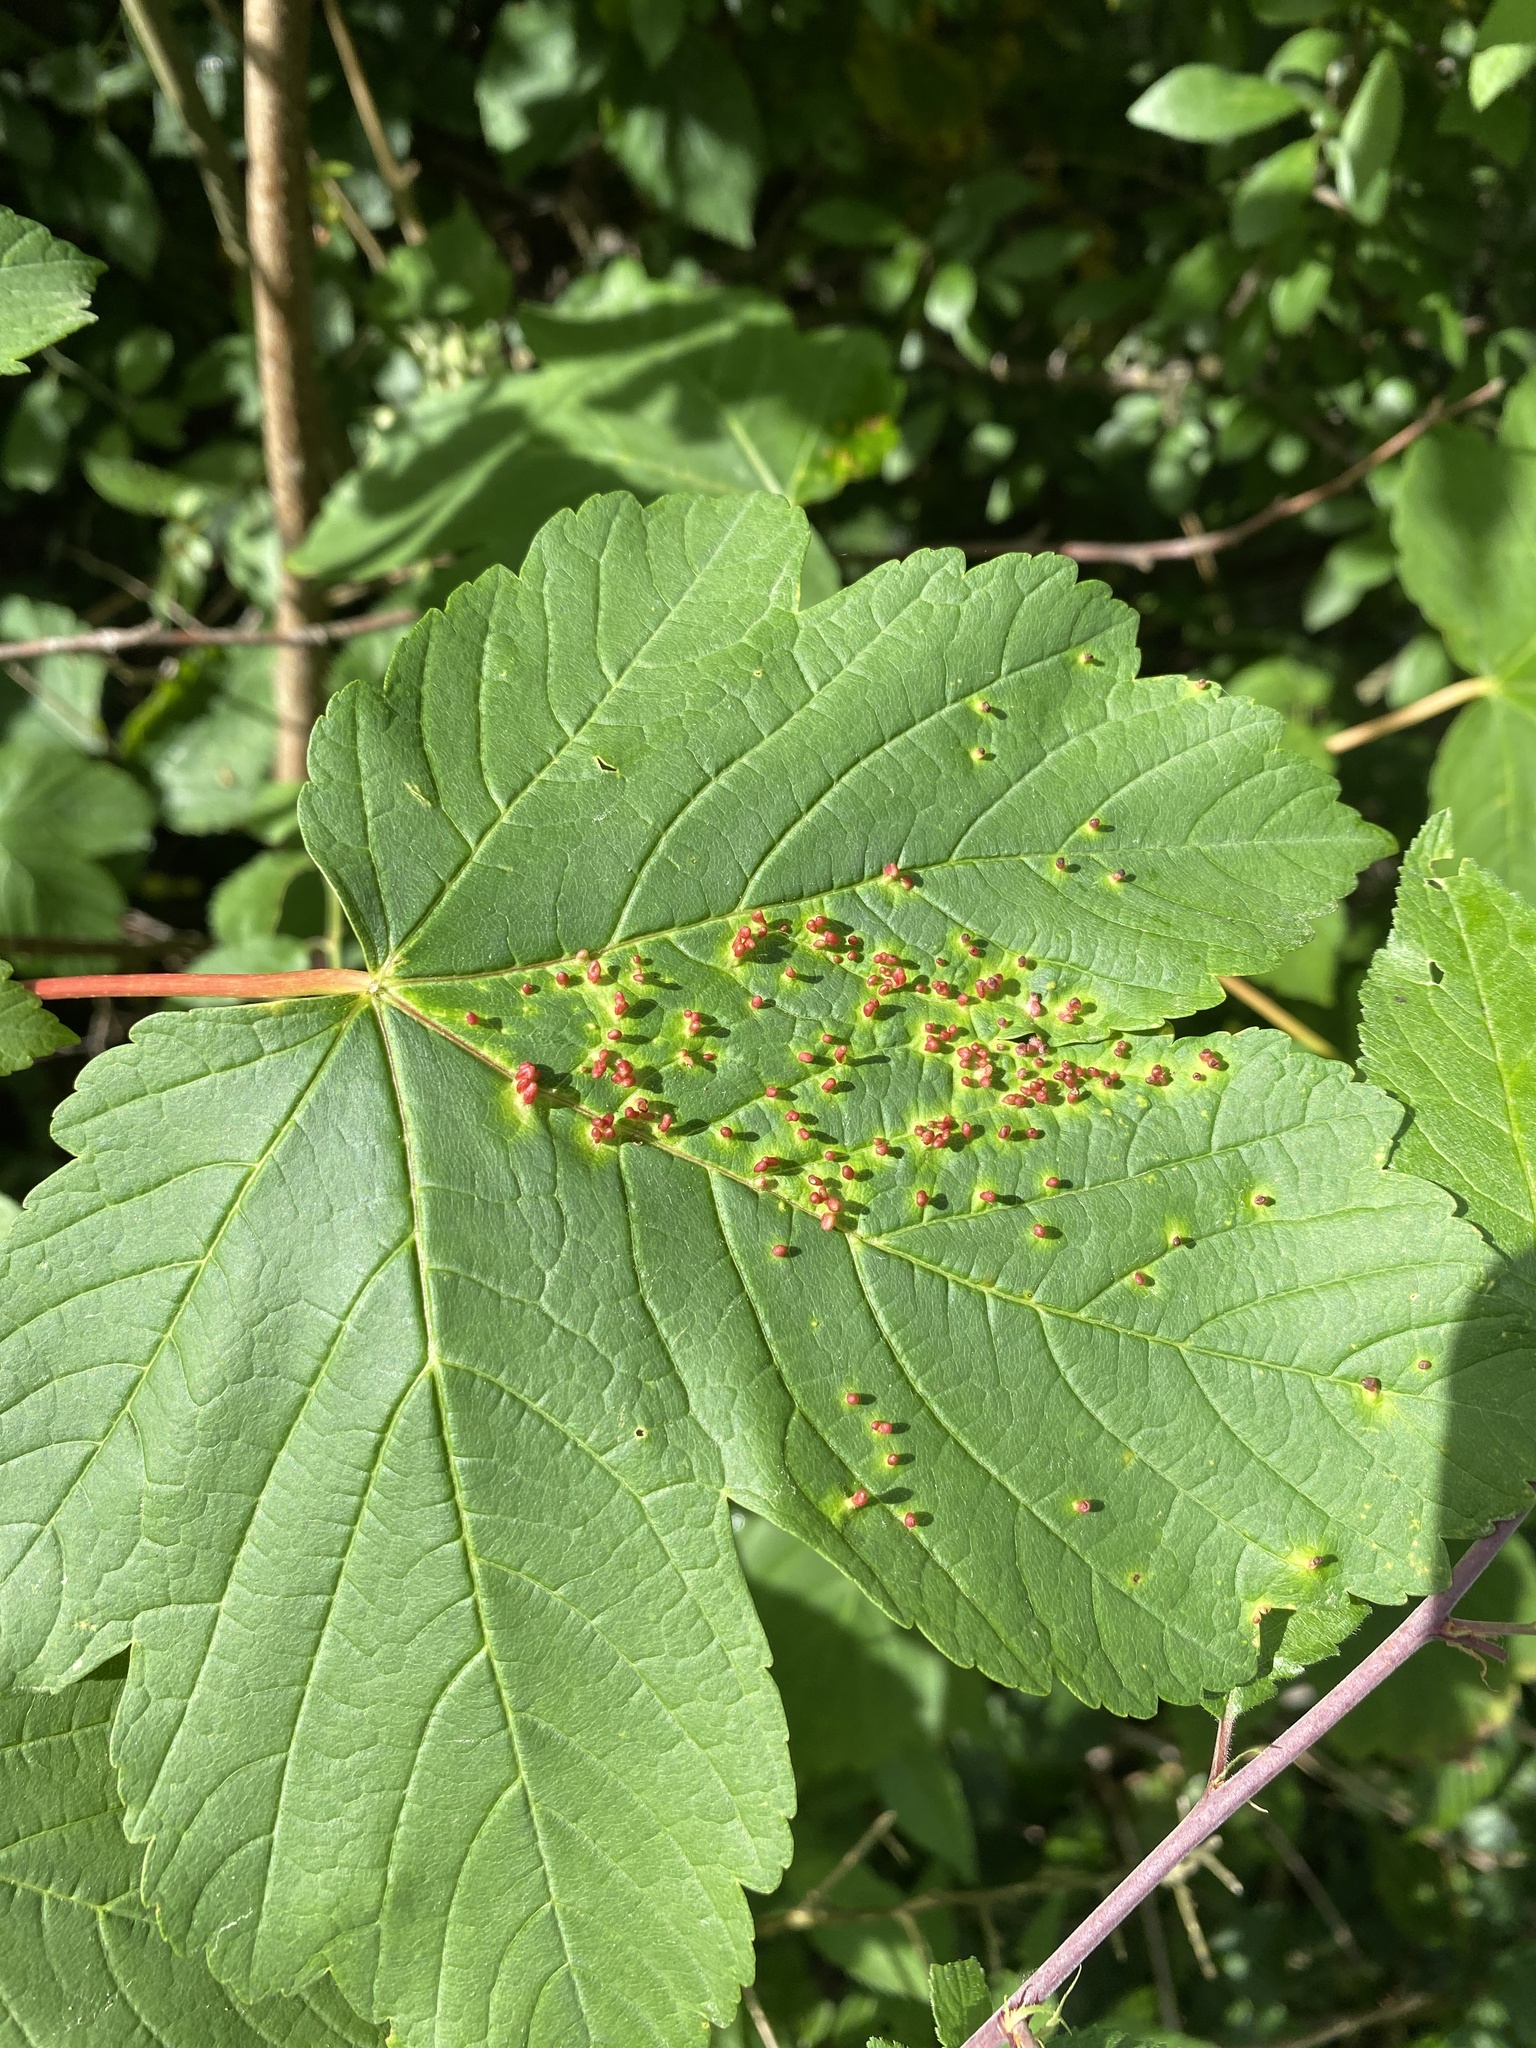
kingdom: Animalia
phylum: Arthropoda
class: Arachnida
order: Trombidiformes
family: Eriophyidae
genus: Aceria
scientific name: Aceria cephaloneus
